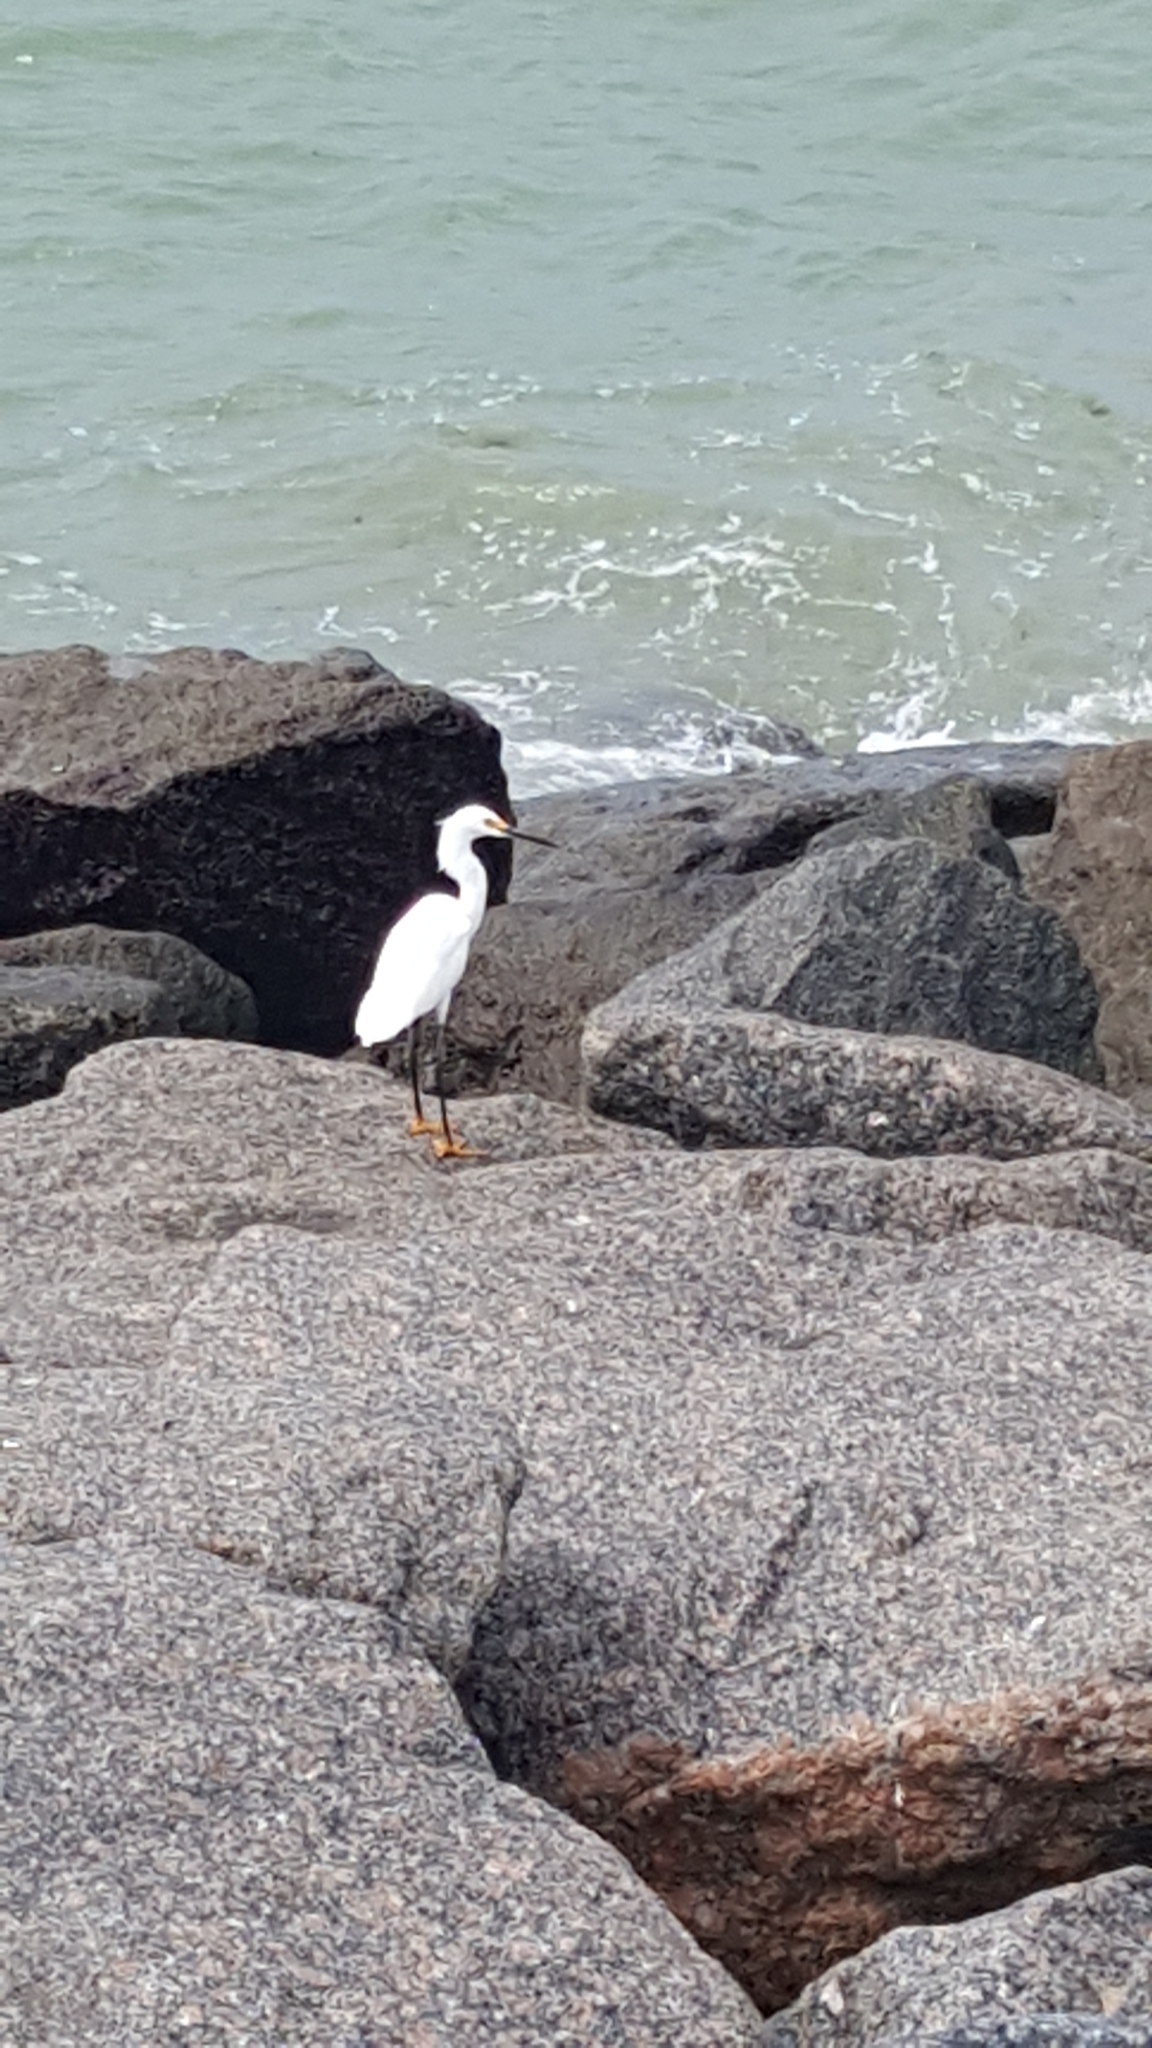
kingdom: Animalia
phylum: Chordata
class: Aves
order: Pelecaniformes
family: Ardeidae
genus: Egretta
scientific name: Egretta thula
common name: Snowy egret
